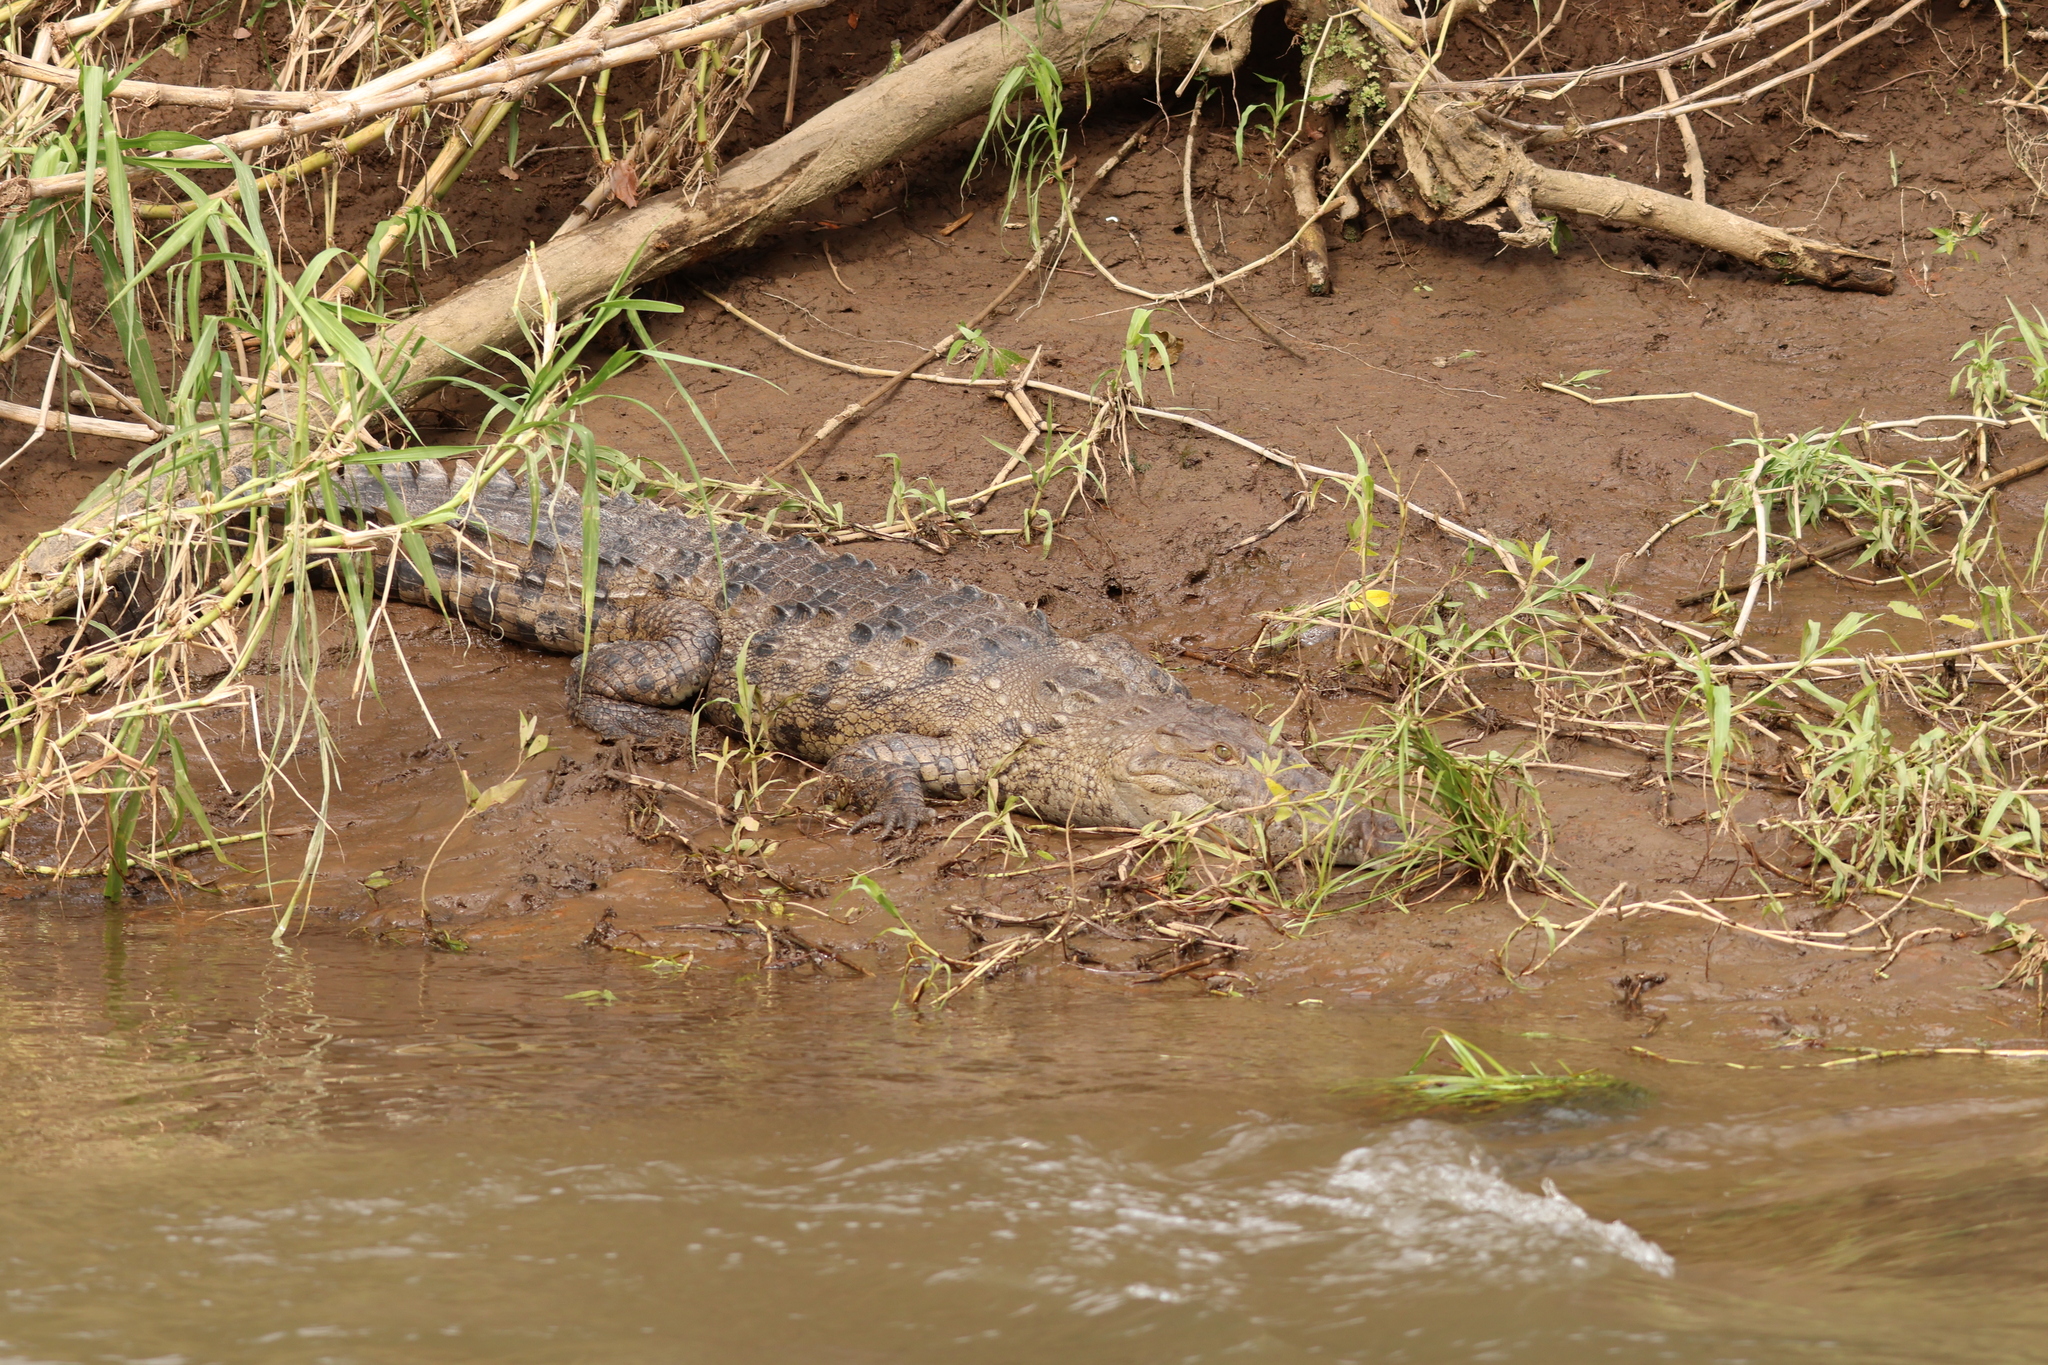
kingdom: Animalia
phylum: Chordata
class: Crocodylia
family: Crocodylidae
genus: Crocodylus
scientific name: Crocodylus acutus
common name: American crocodile
